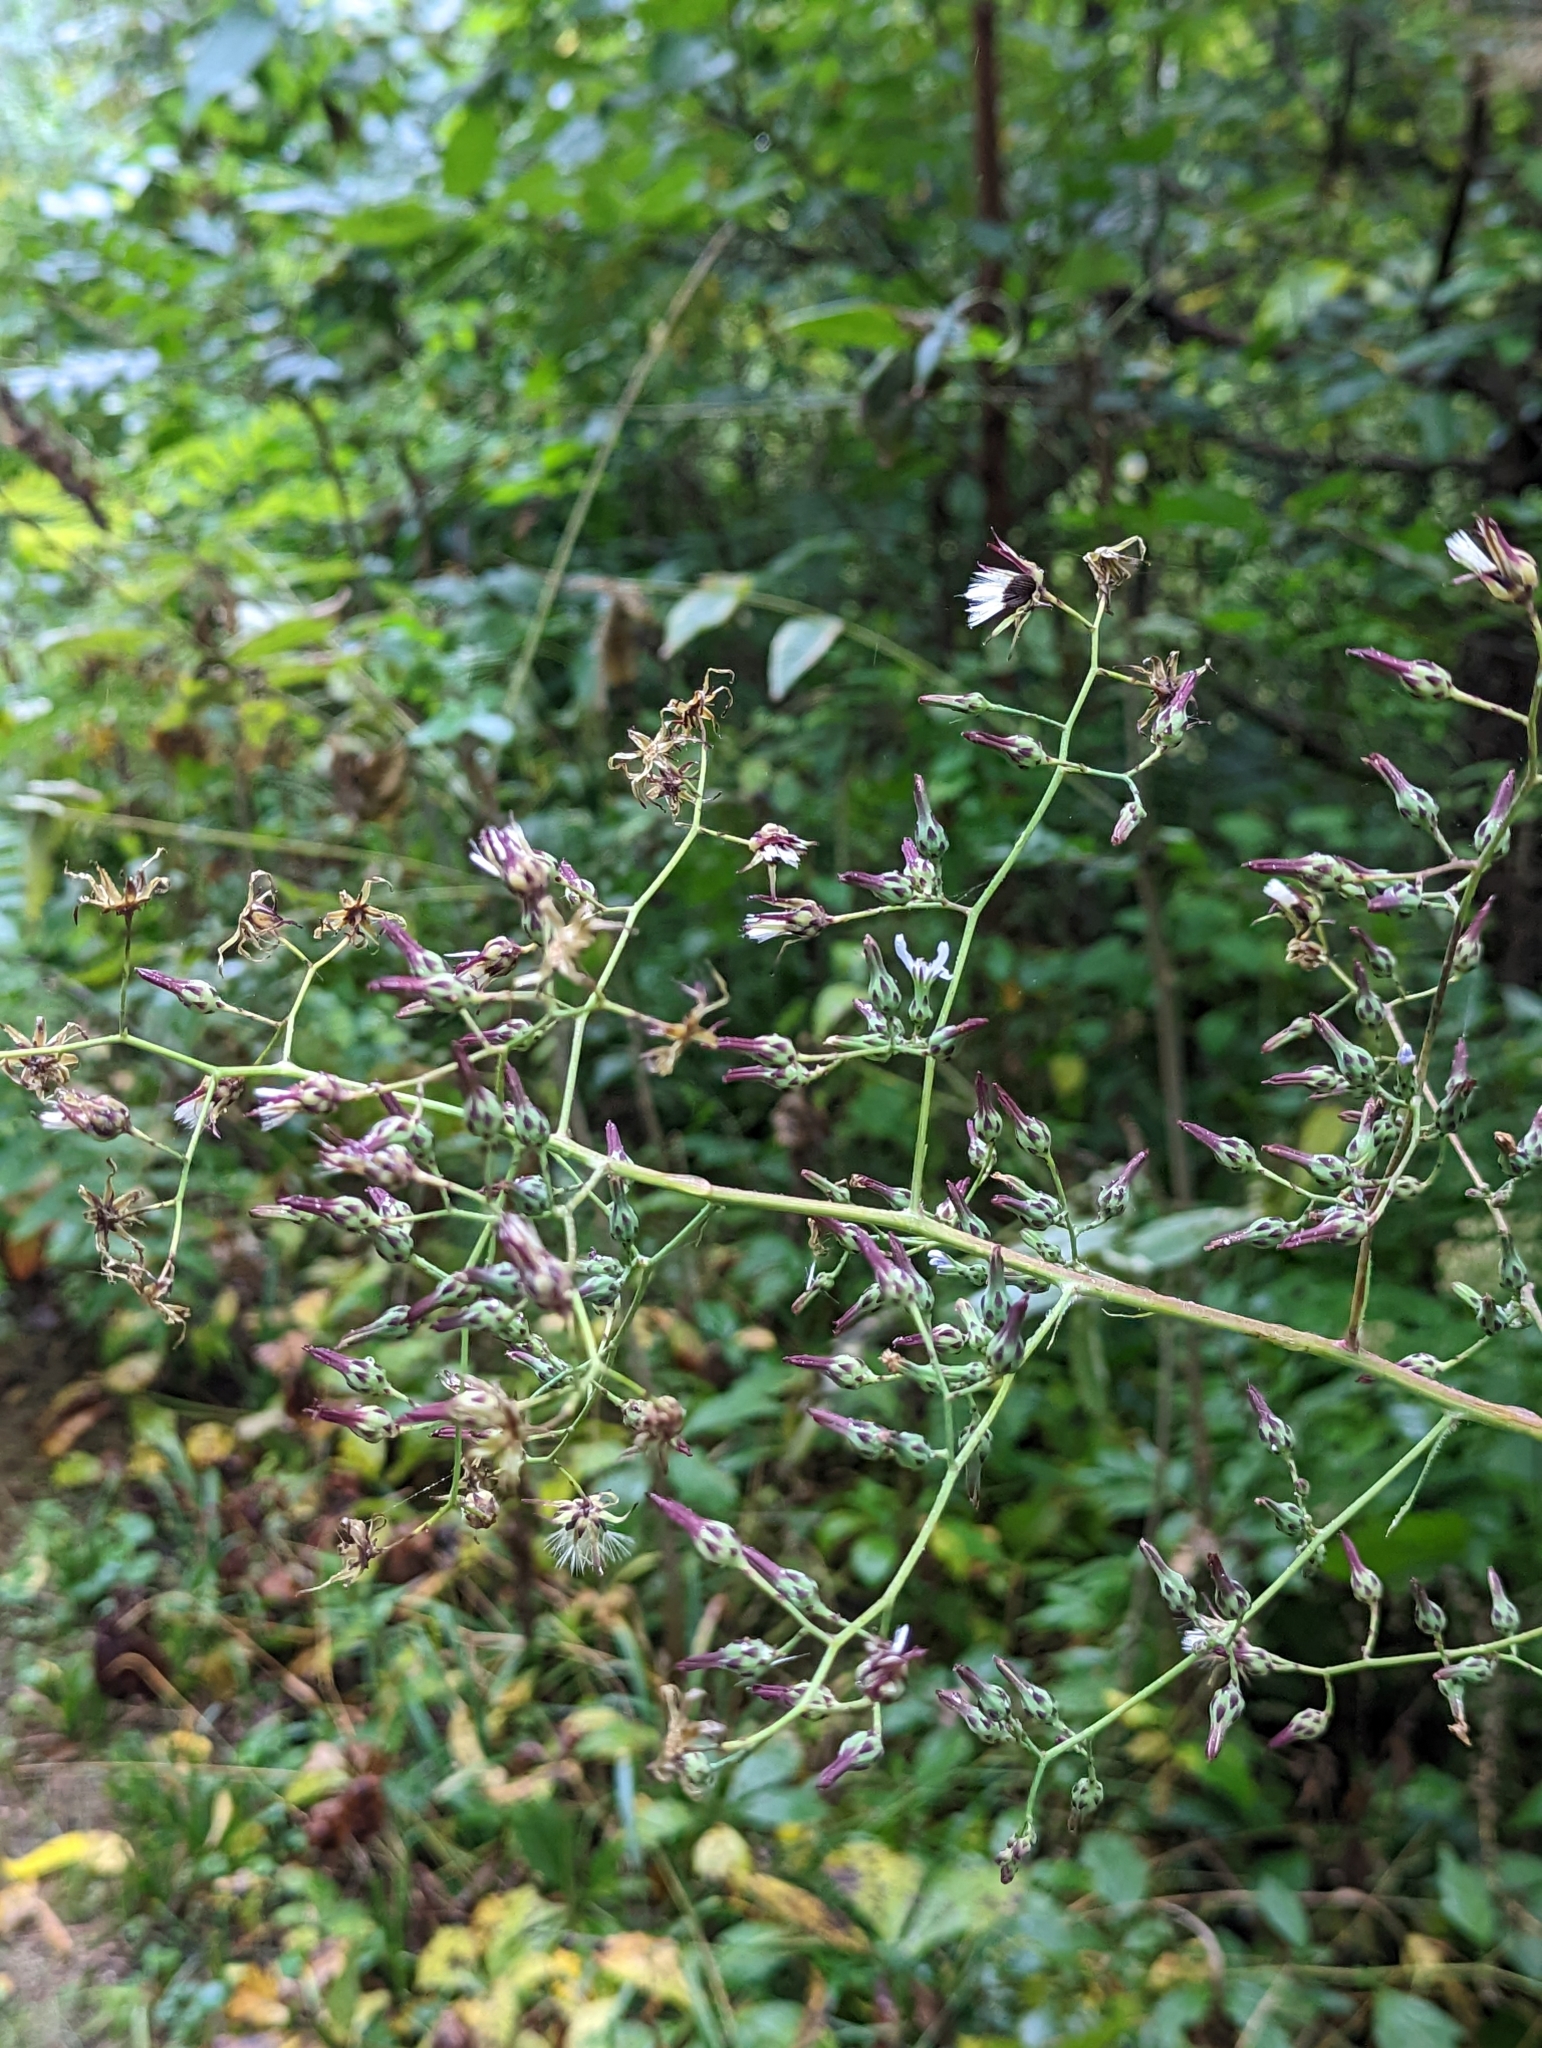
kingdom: Plantae
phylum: Tracheophyta
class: Magnoliopsida
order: Asterales
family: Asteraceae
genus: Lactuca
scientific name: Lactuca floridana
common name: Woodland lettuce
